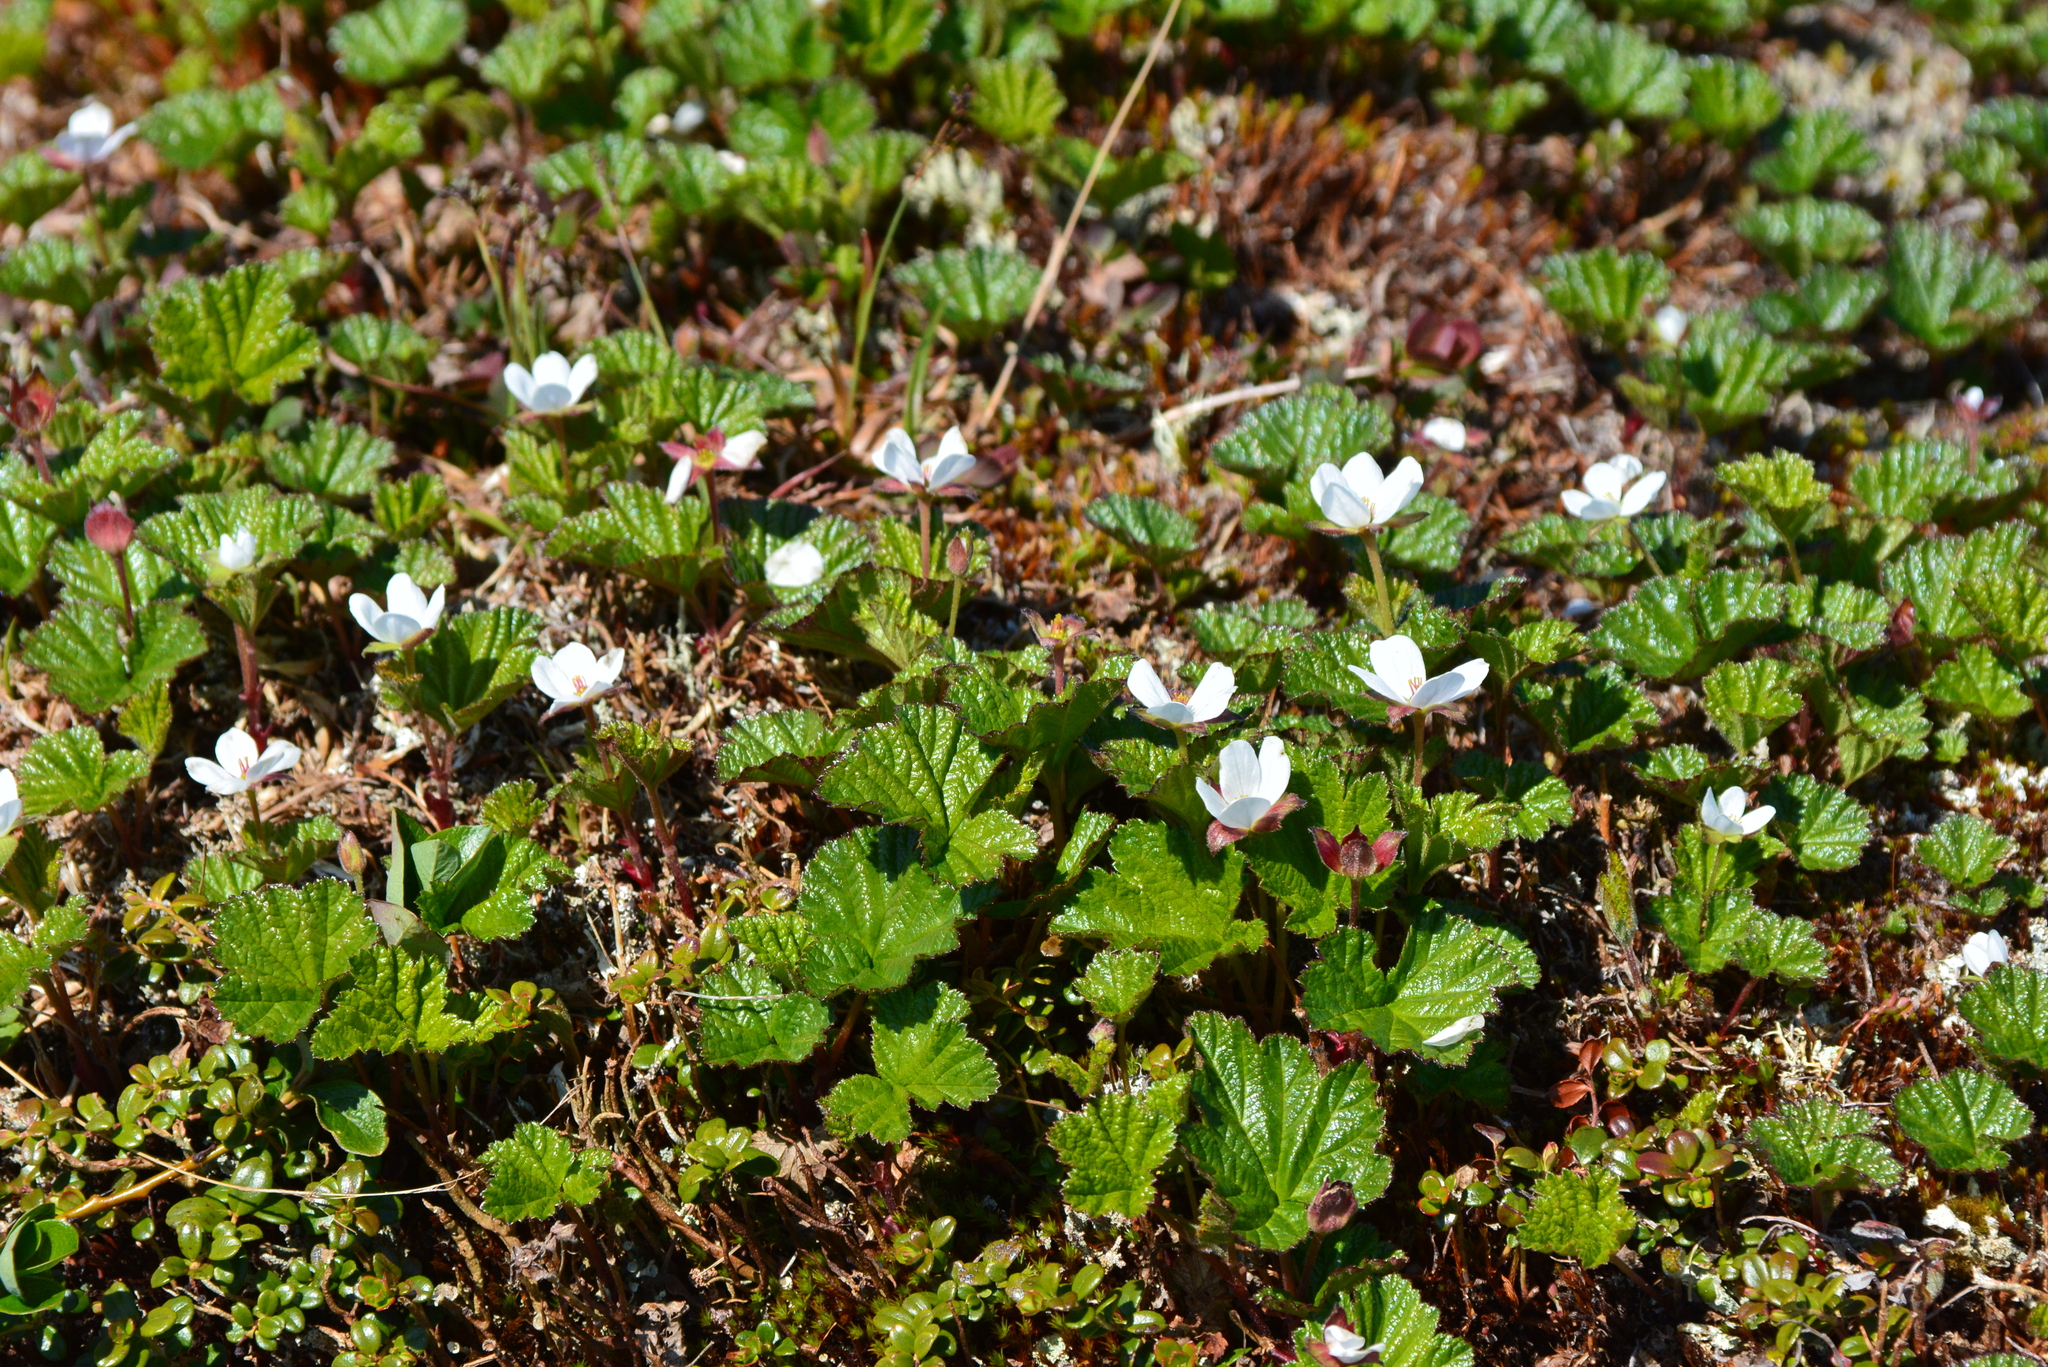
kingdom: Plantae
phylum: Tracheophyta
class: Magnoliopsida
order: Rosales
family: Rosaceae
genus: Rubus
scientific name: Rubus chamaemorus
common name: Cloudberry
